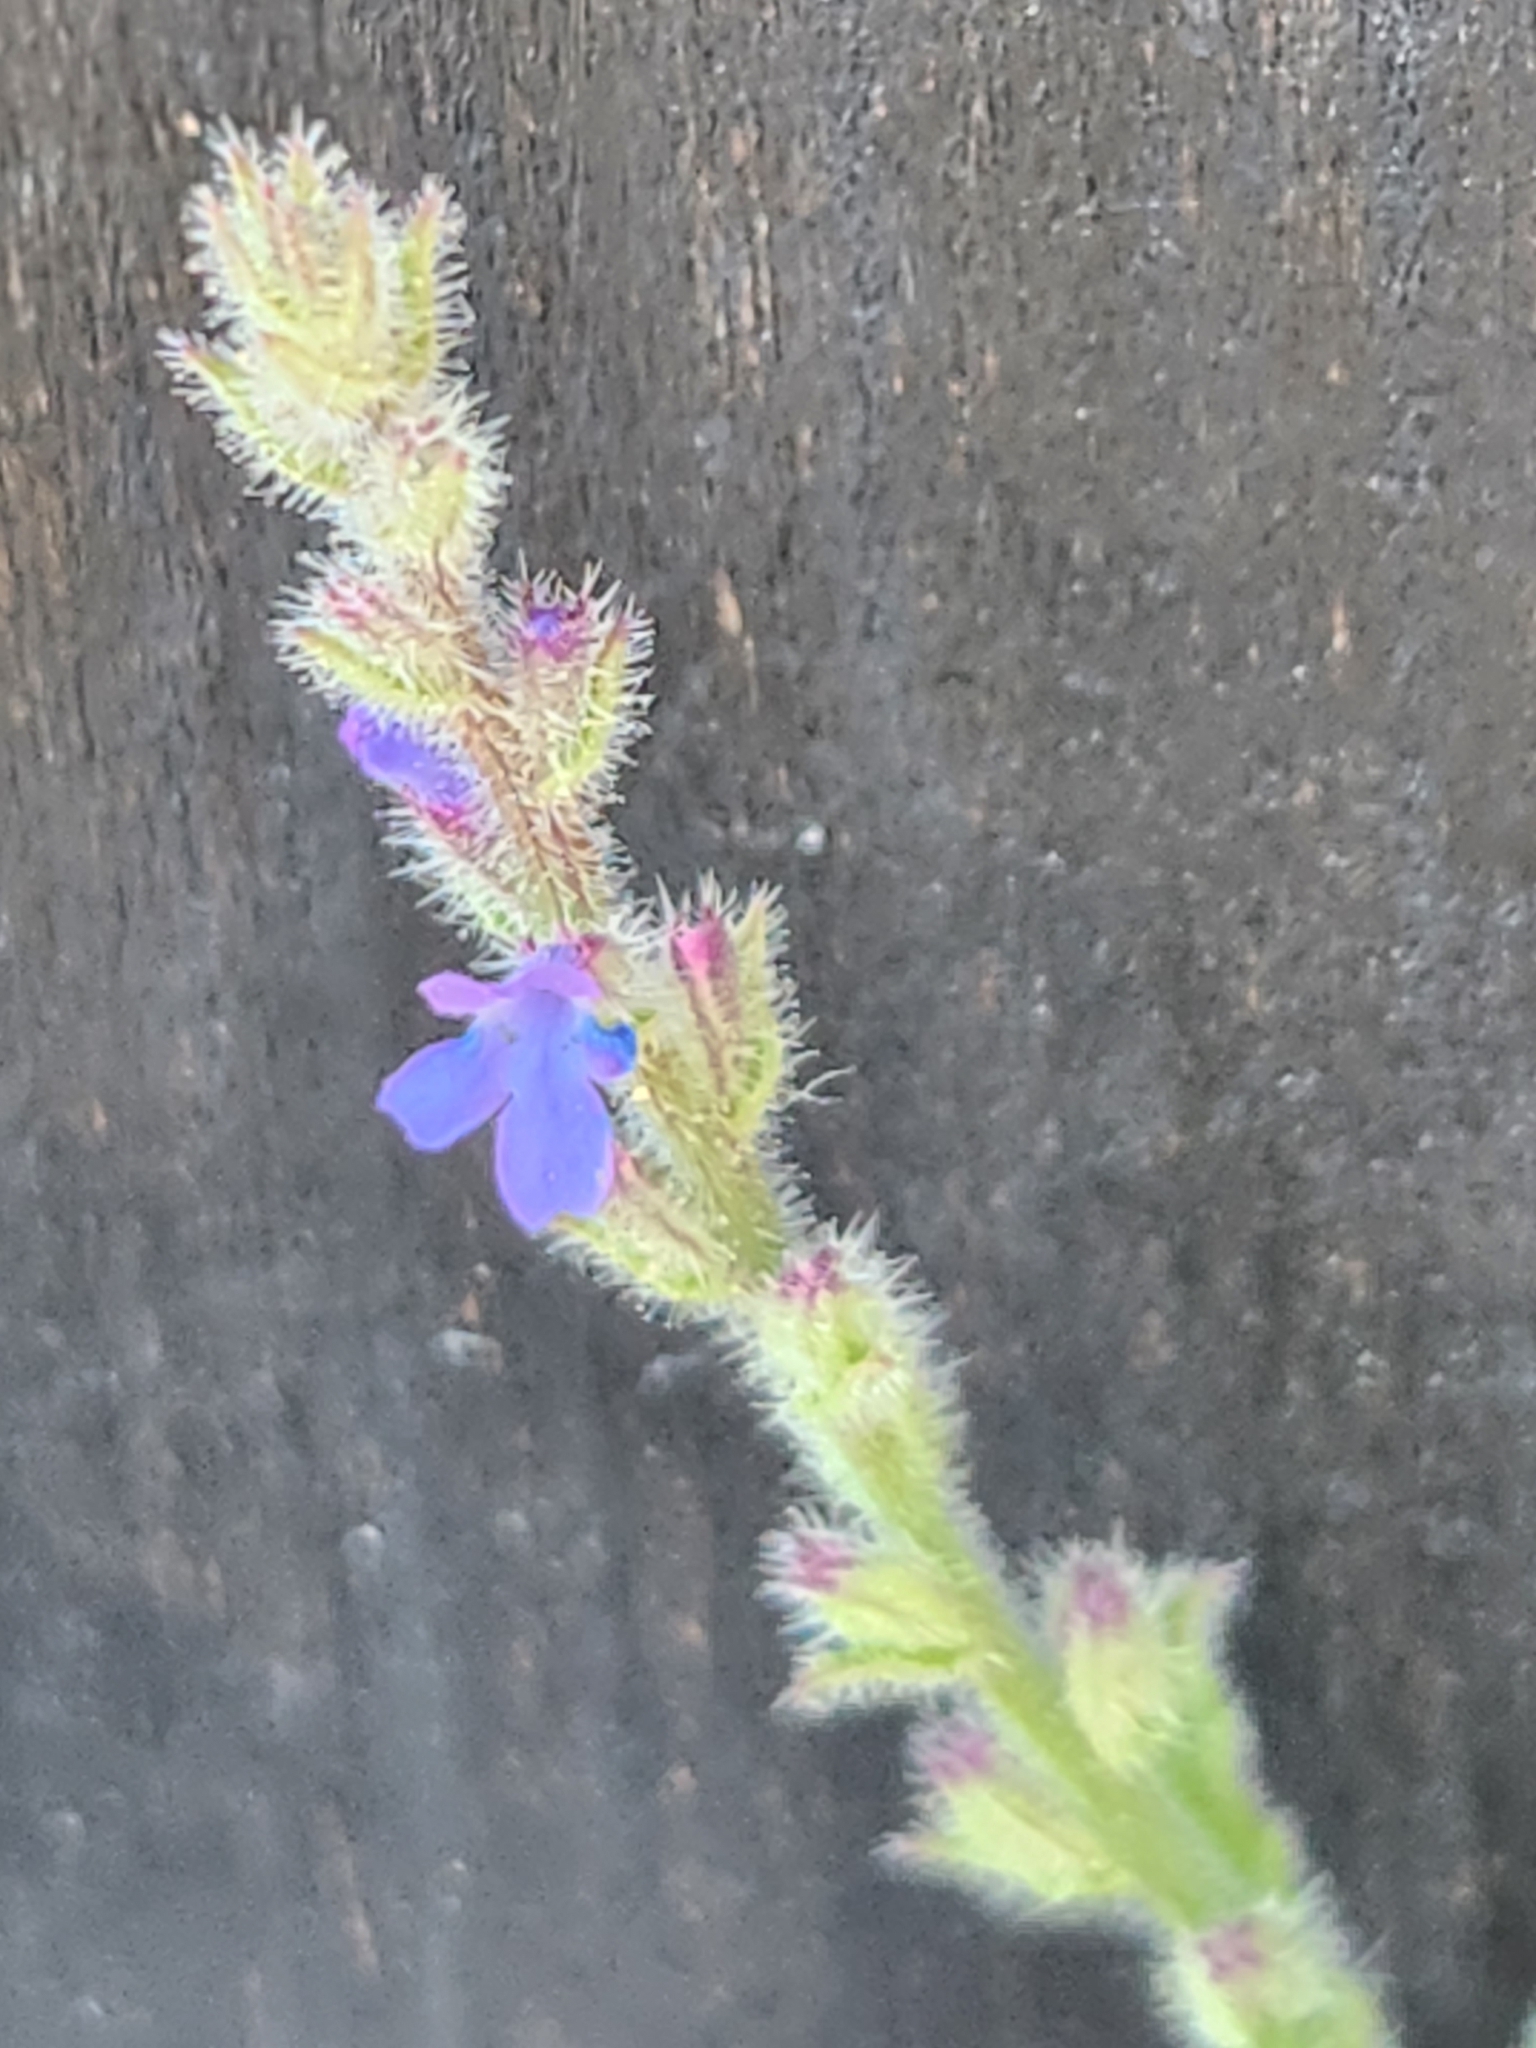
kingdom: Plantae
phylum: Tracheophyta
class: Magnoliopsida
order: Lamiales
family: Verbenaceae
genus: Verbena
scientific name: Verbena canescens
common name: Gray vervain
